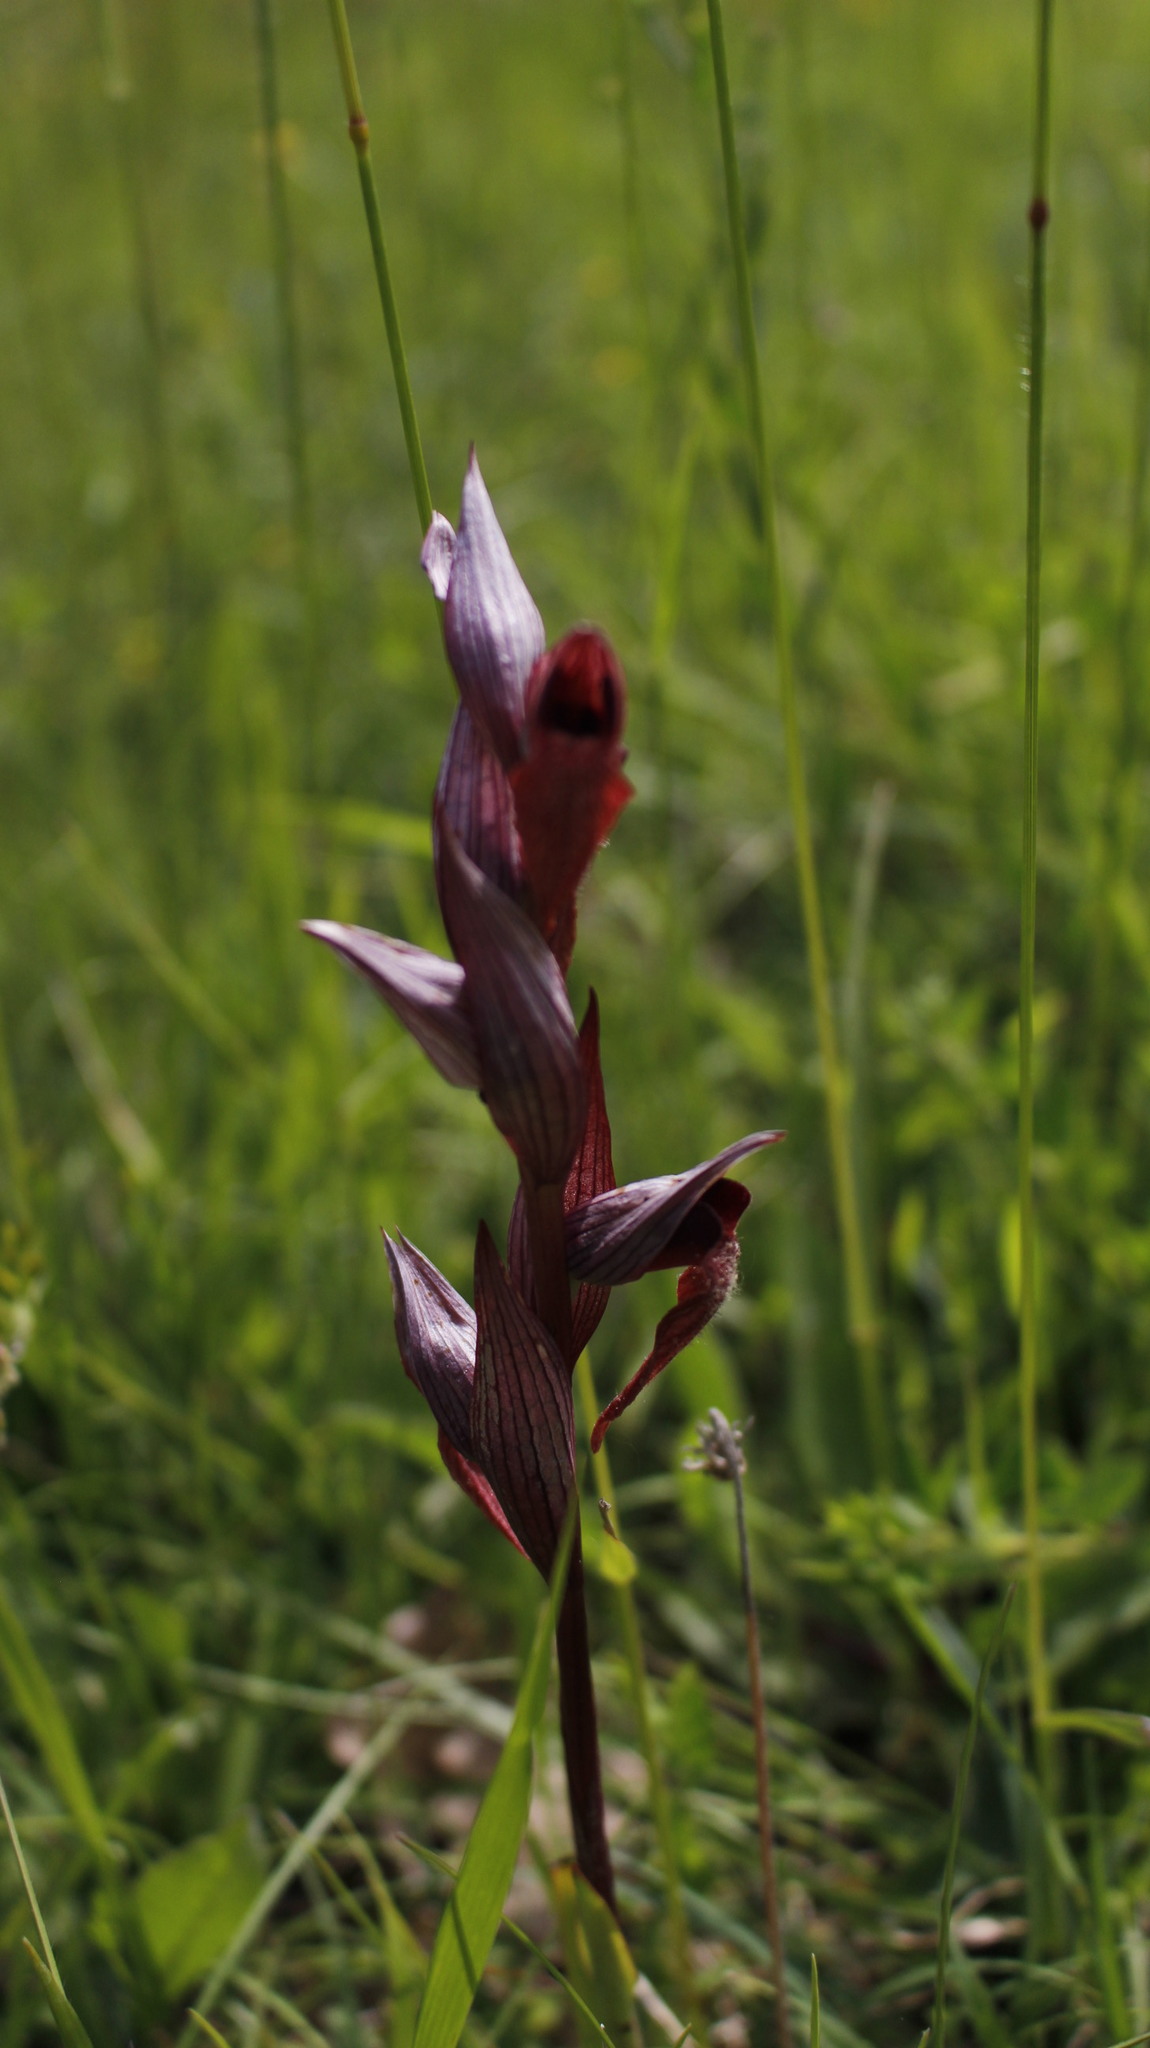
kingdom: Plantae
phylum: Tracheophyta
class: Liliopsida
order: Asparagales
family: Orchidaceae
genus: Serapias
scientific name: Serapias vomeracea
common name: Long-lipped tongue-orchid
